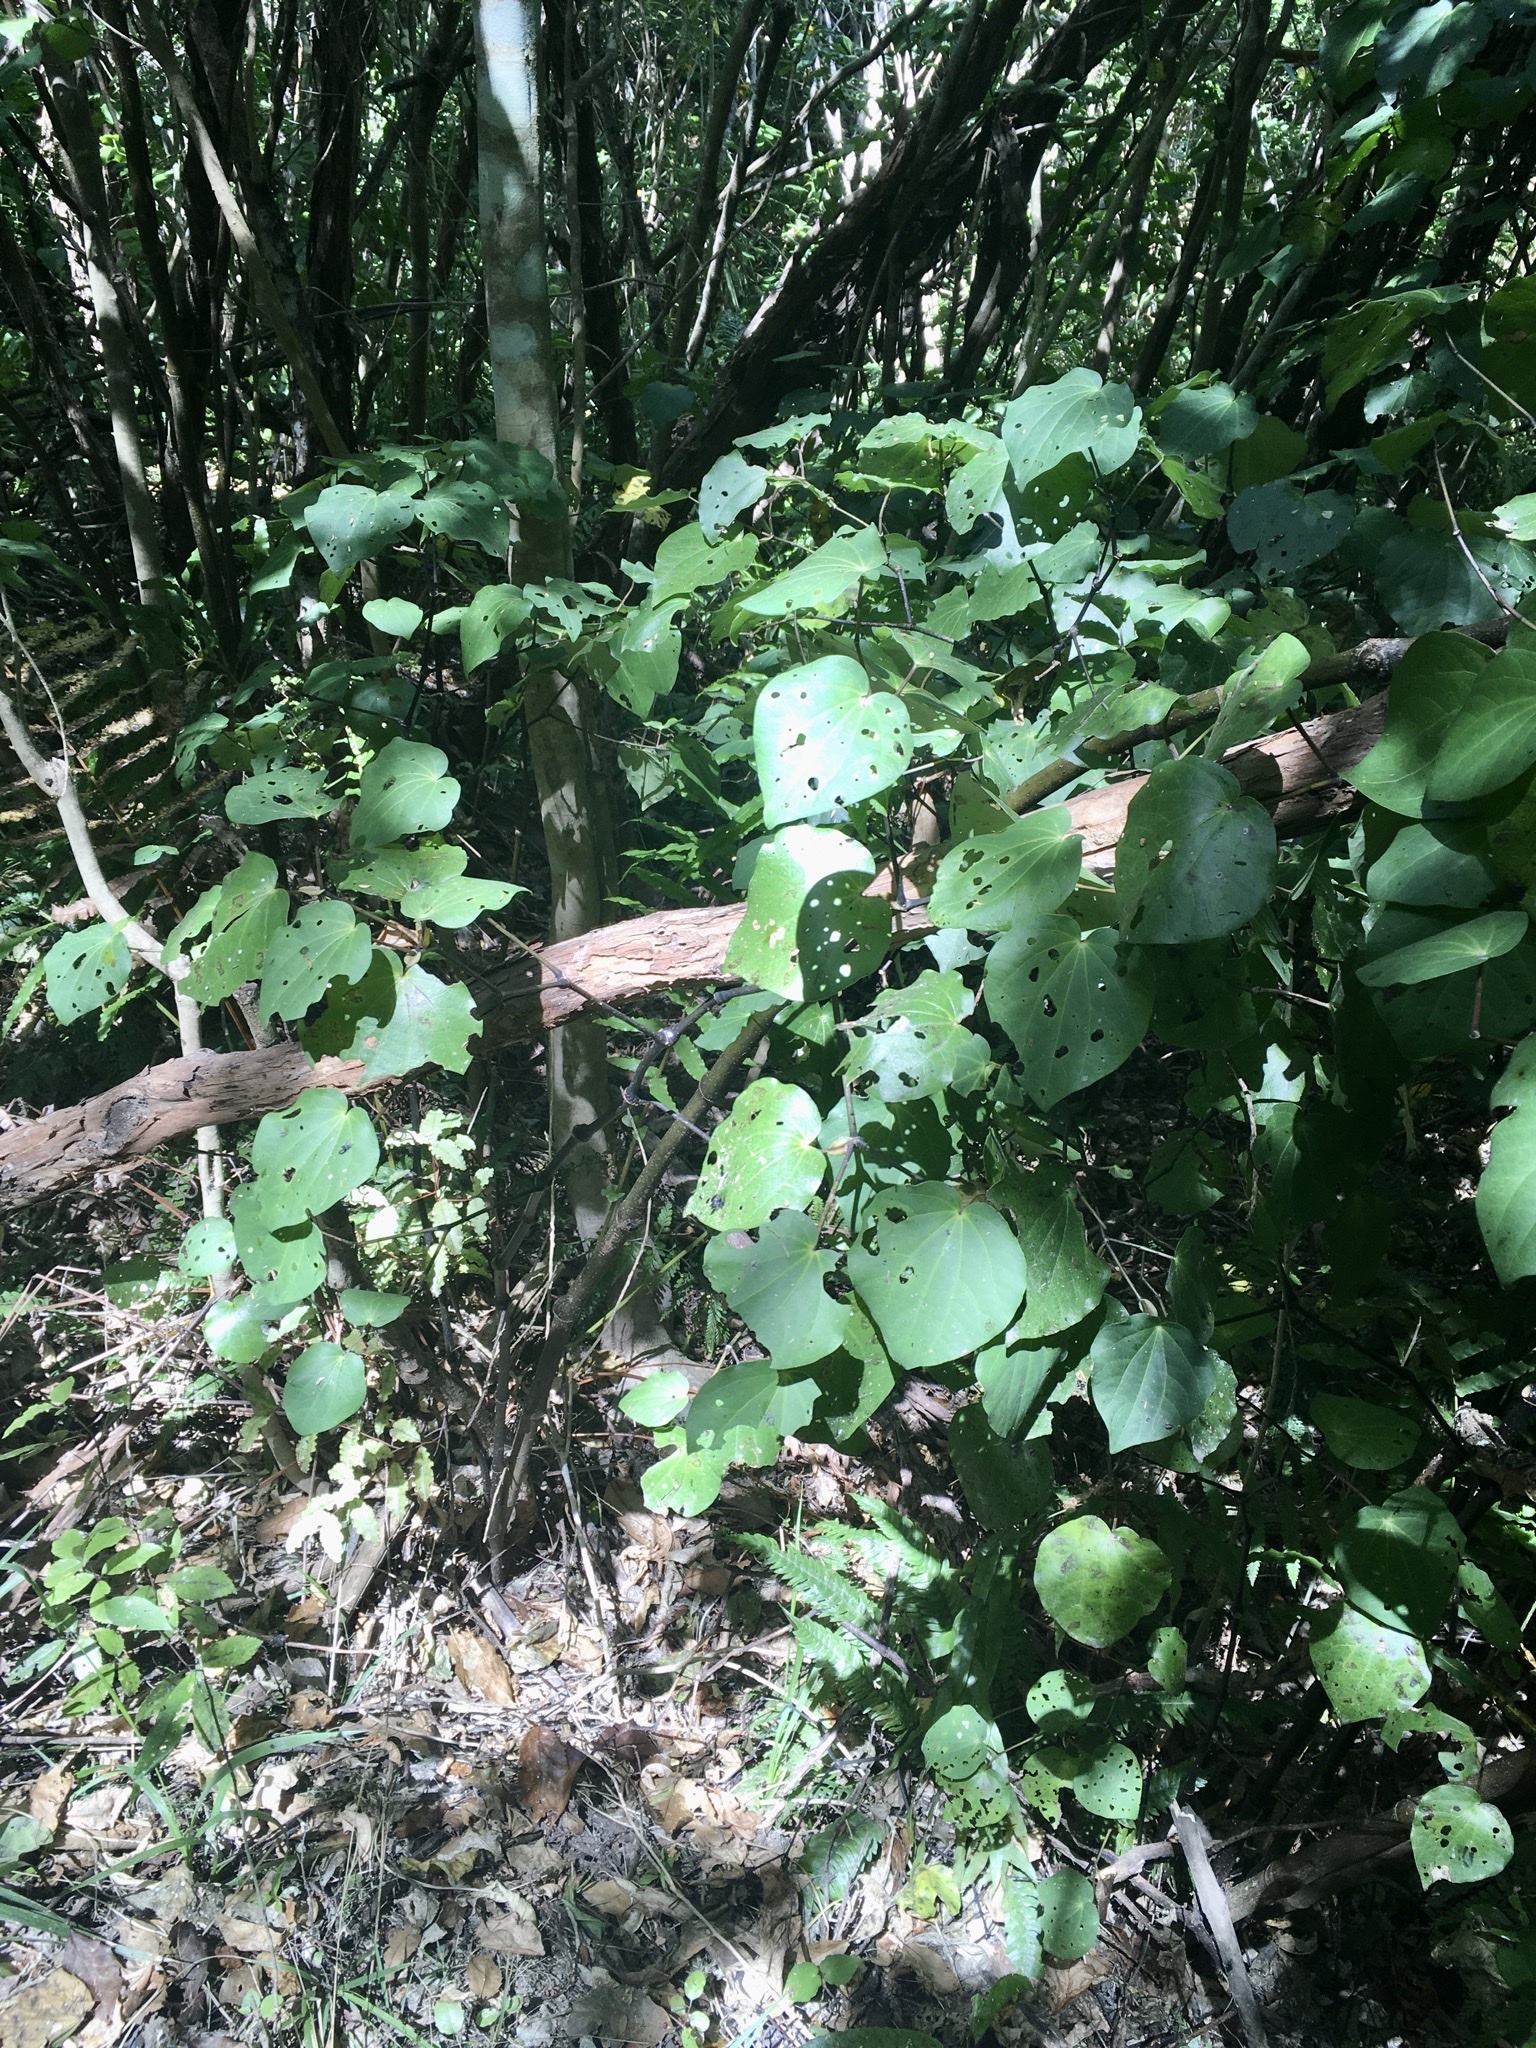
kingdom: Plantae
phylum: Tracheophyta
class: Magnoliopsida
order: Piperales
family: Piperaceae
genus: Macropiper
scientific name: Macropiper excelsum
